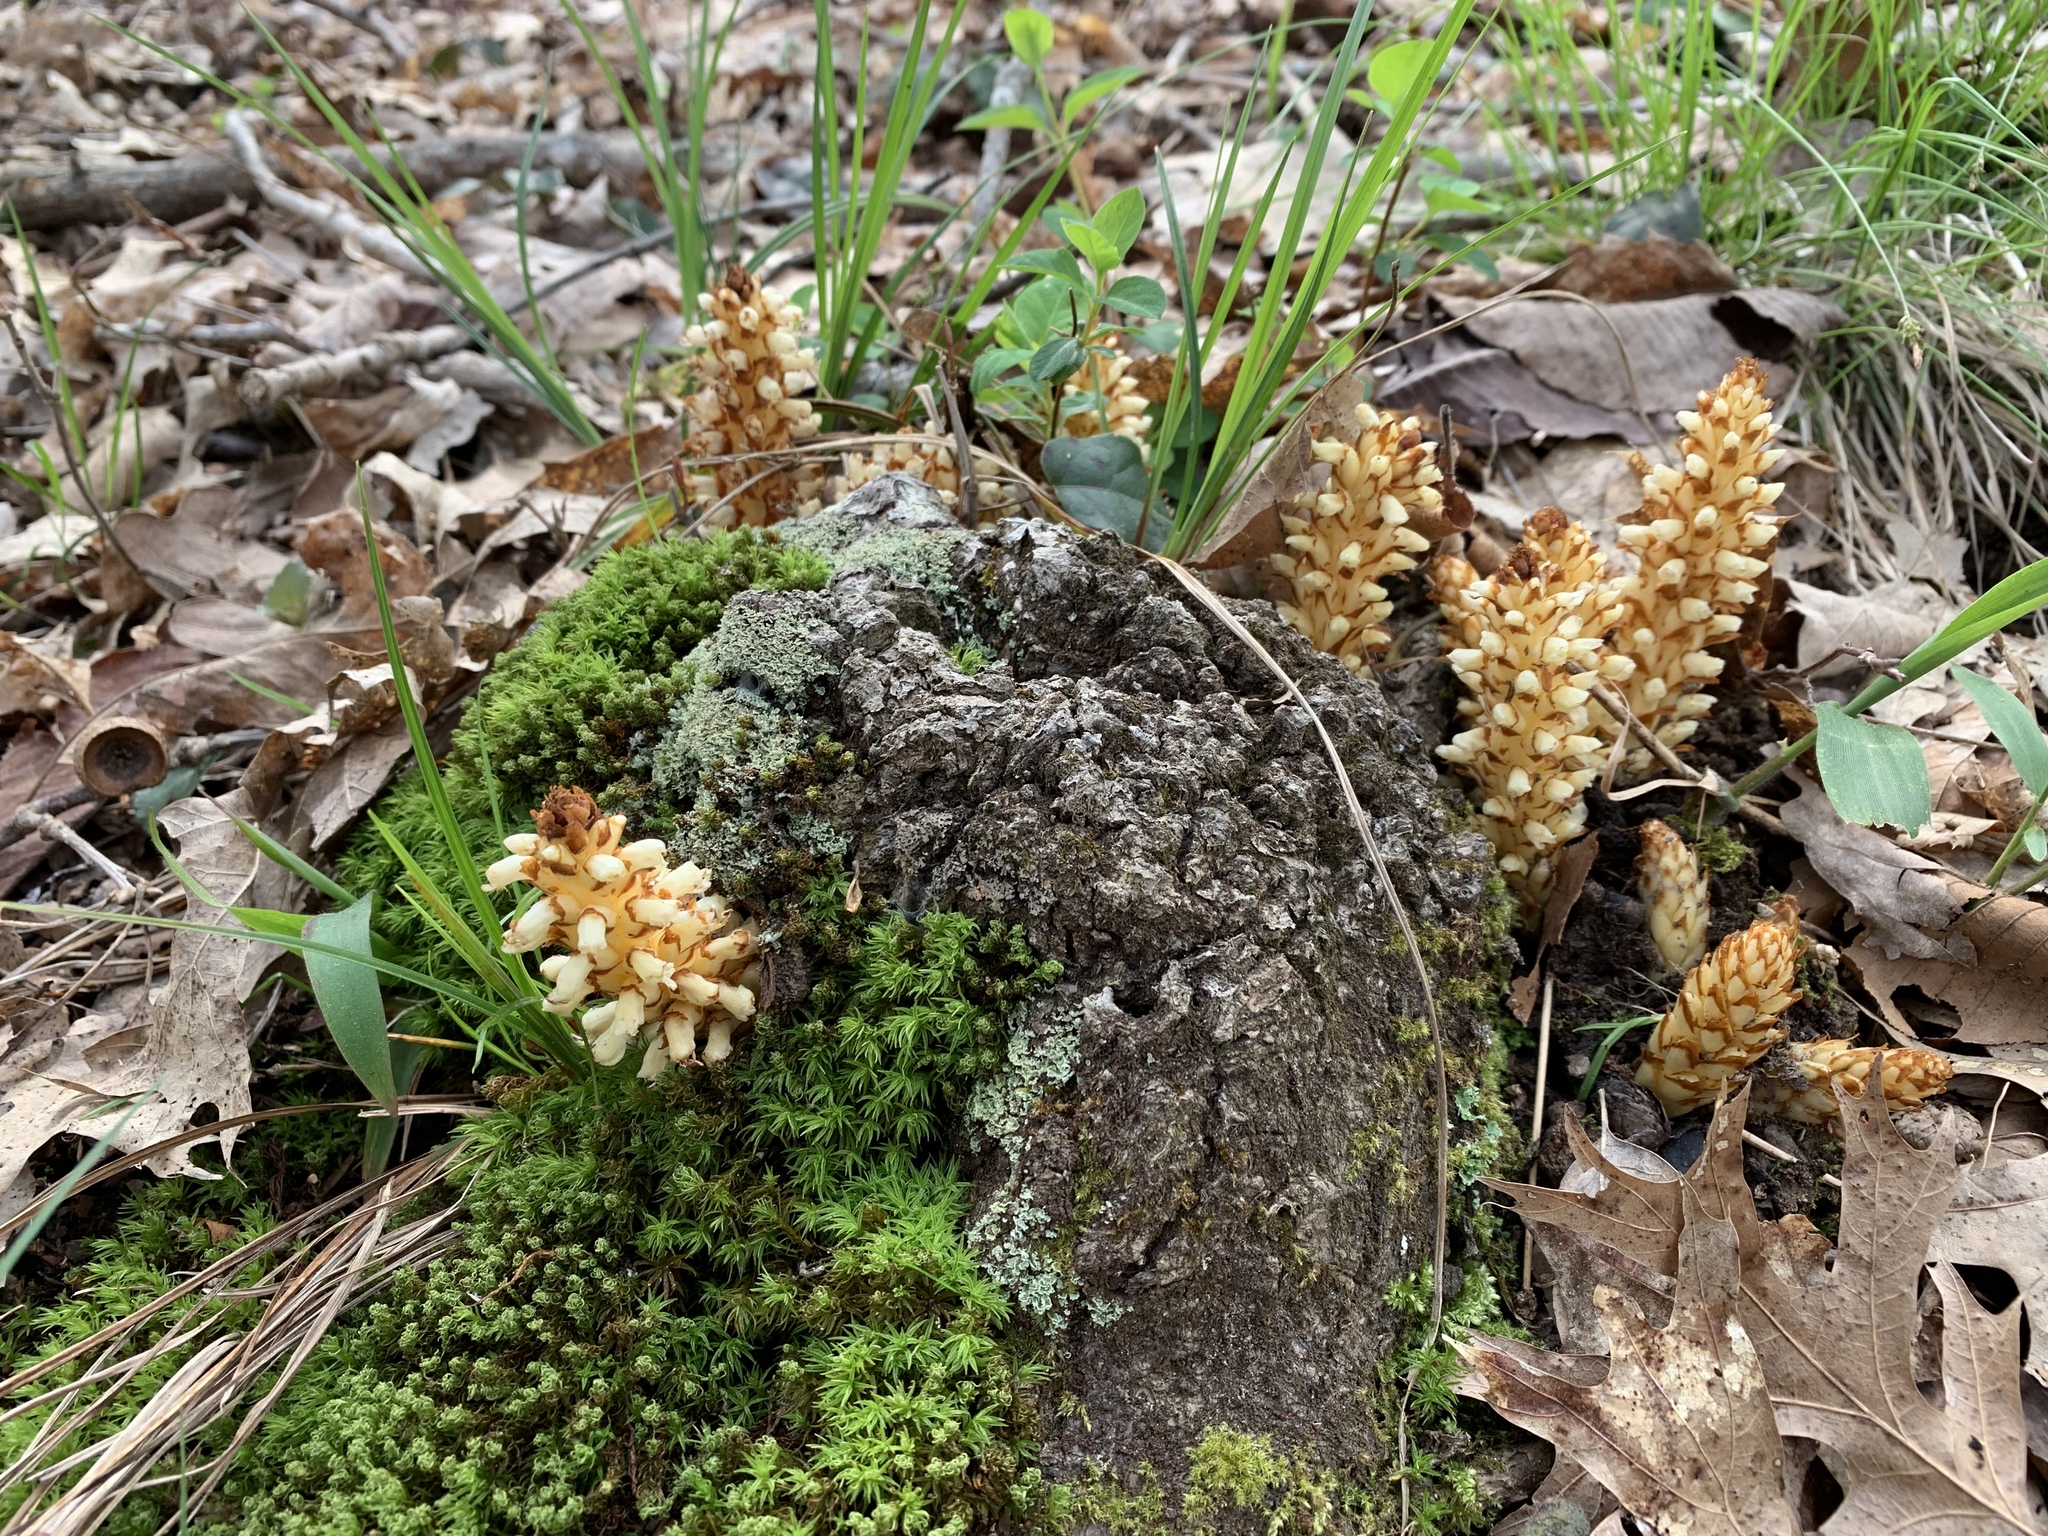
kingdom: Plantae
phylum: Tracheophyta
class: Magnoliopsida
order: Lamiales
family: Orobanchaceae
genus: Conopholis
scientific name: Conopholis americana
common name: American cancer-root
